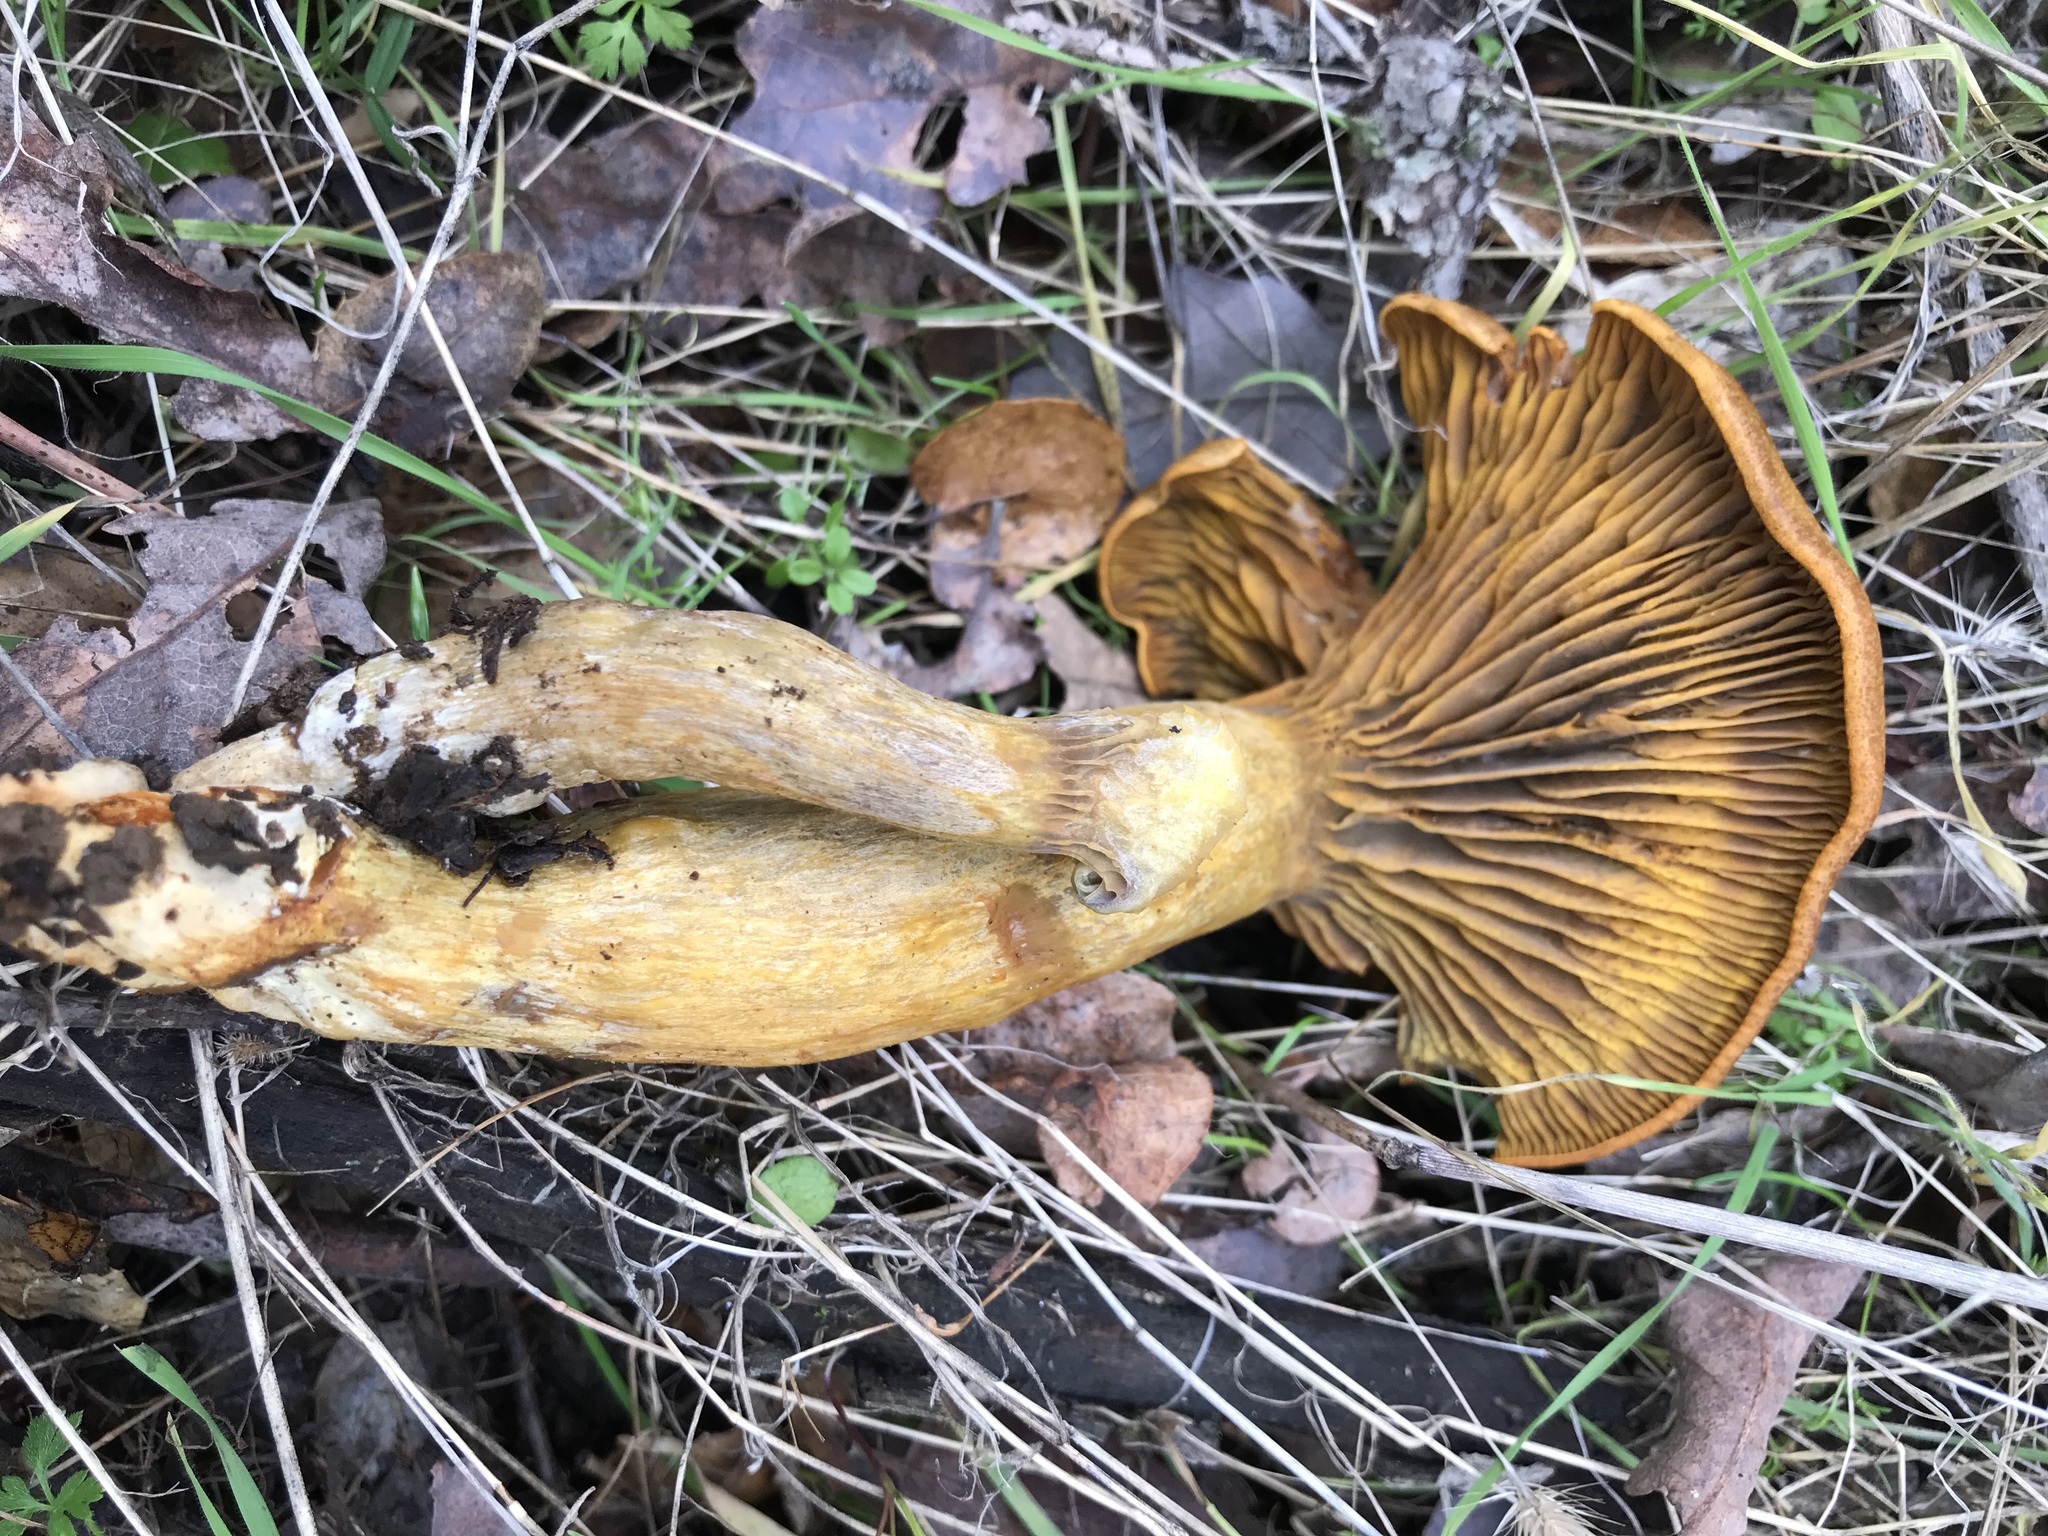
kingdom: Fungi
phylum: Basidiomycota
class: Agaricomycetes
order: Agaricales
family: Omphalotaceae
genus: Omphalotus
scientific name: Omphalotus olivascens
